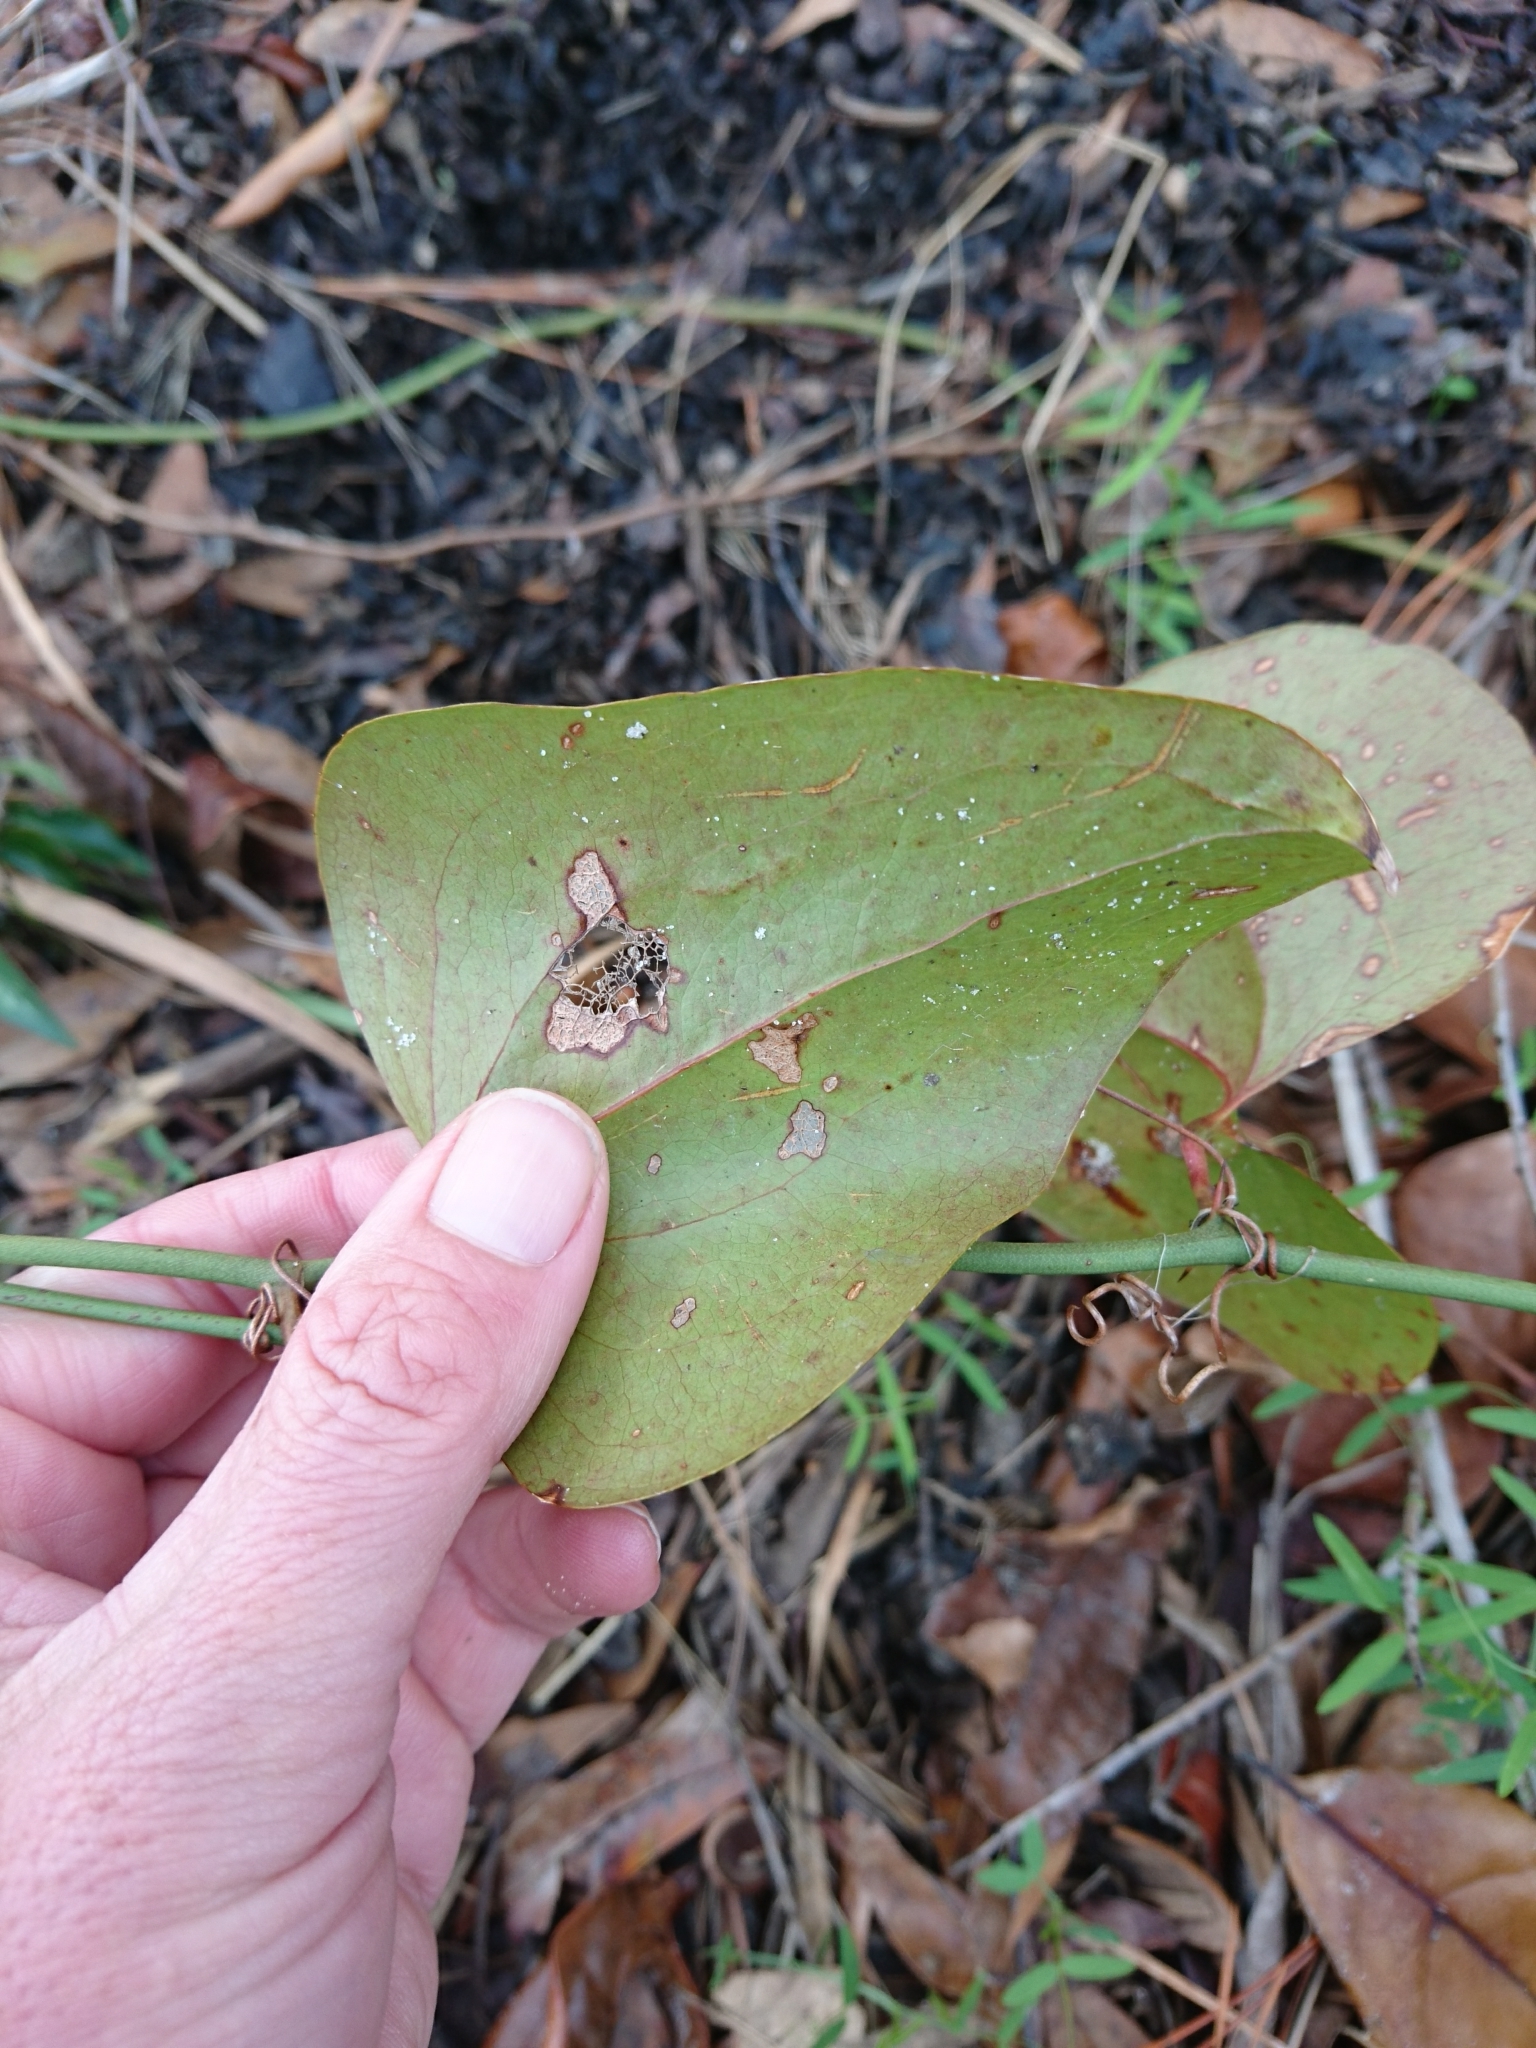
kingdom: Plantae
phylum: Tracheophyta
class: Liliopsida
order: Liliales
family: Smilacaceae
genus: Smilax
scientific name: Smilax bona-nox
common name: Catbrier
